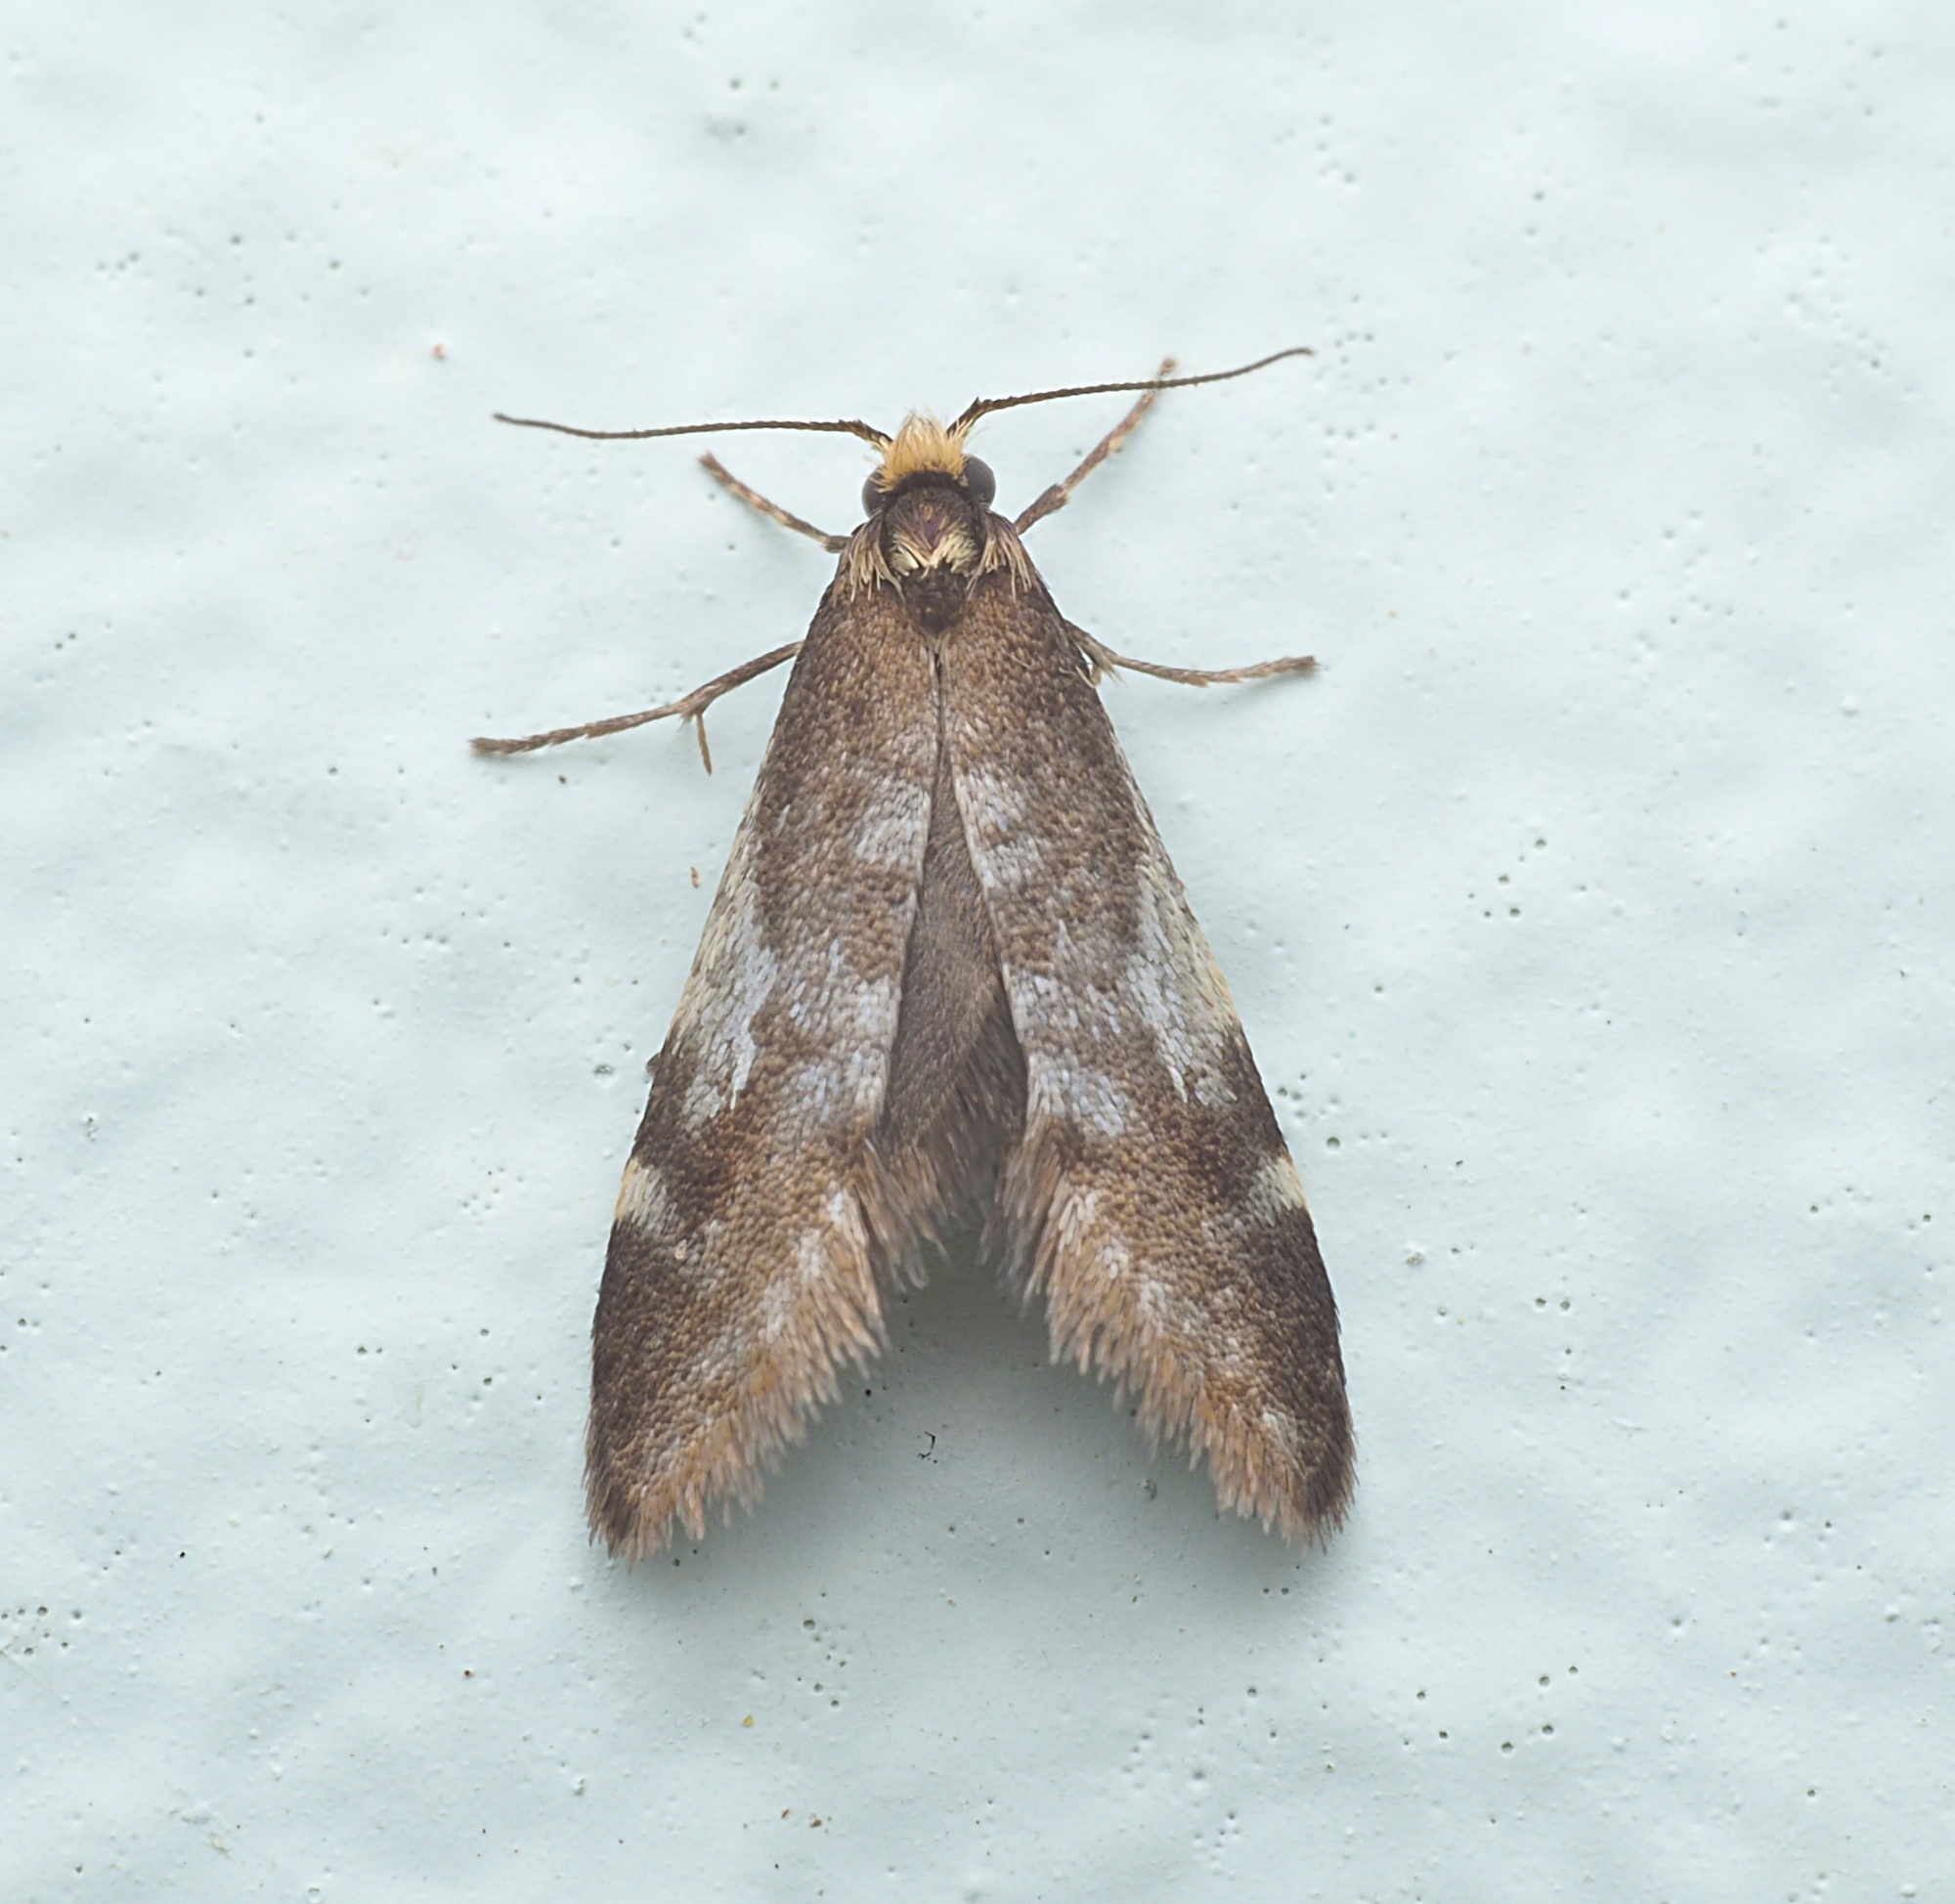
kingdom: Animalia
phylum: Arthropoda
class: Insecta
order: Lepidoptera
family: Psychidae
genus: Lepidoscia
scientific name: Lepidoscia lainodes
